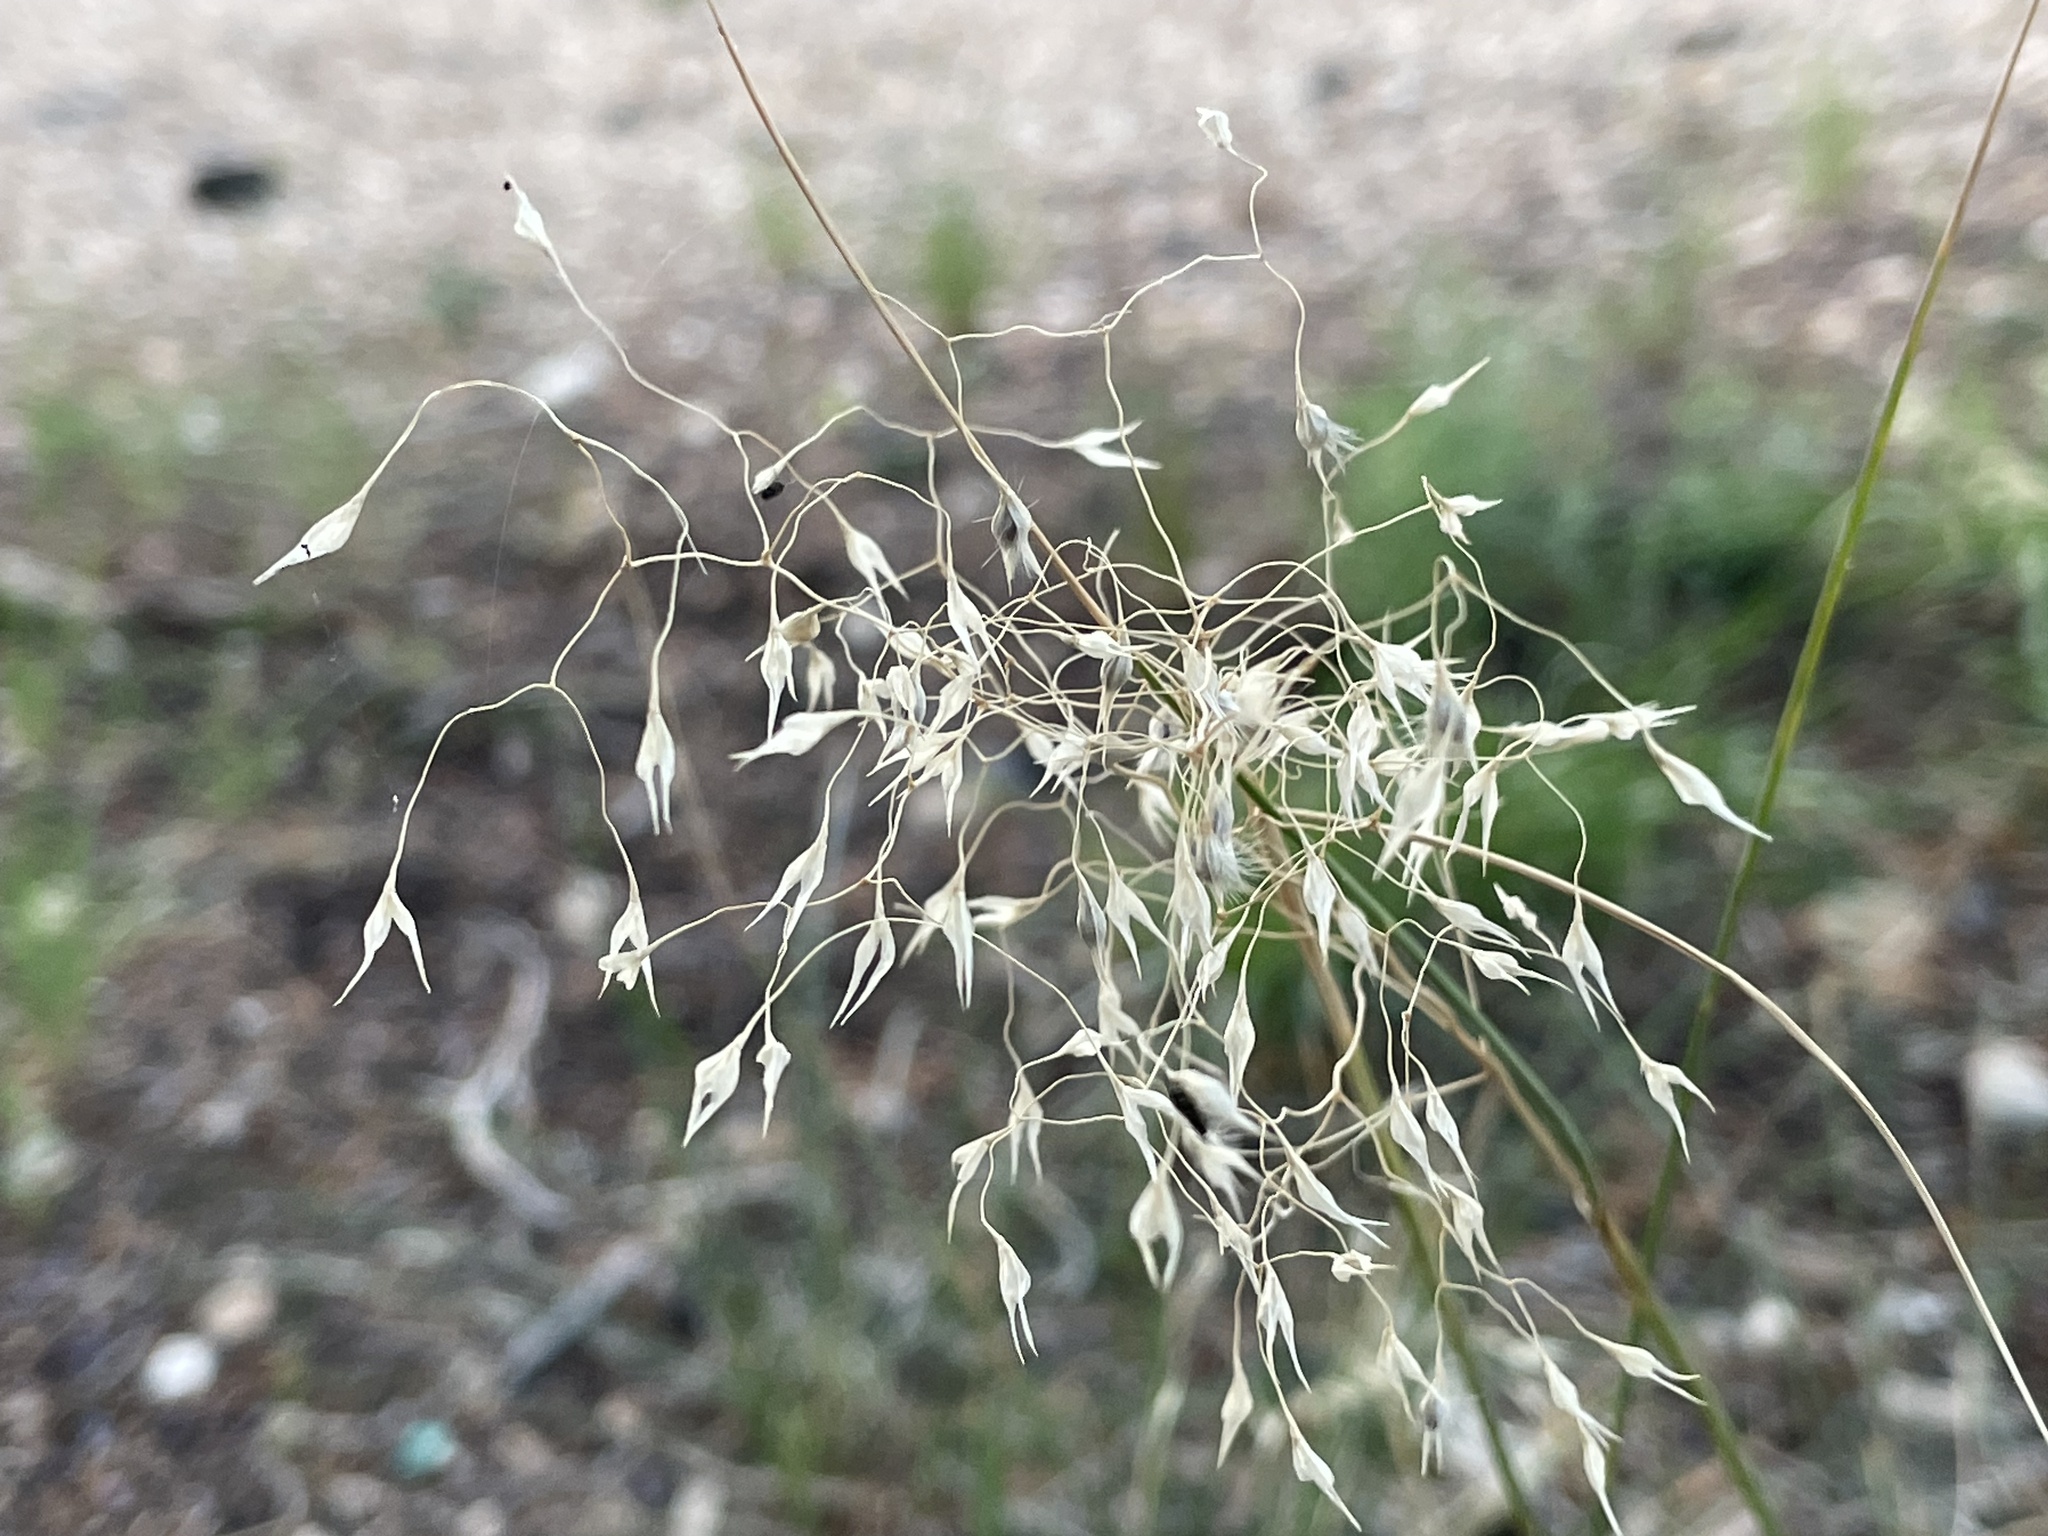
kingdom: Plantae
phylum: Tracheophyta
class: Liliopsida
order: Poales
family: Poaceae
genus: Eriocoma
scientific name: Eriocoma hymenoides
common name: Indian mountain ricegrass
